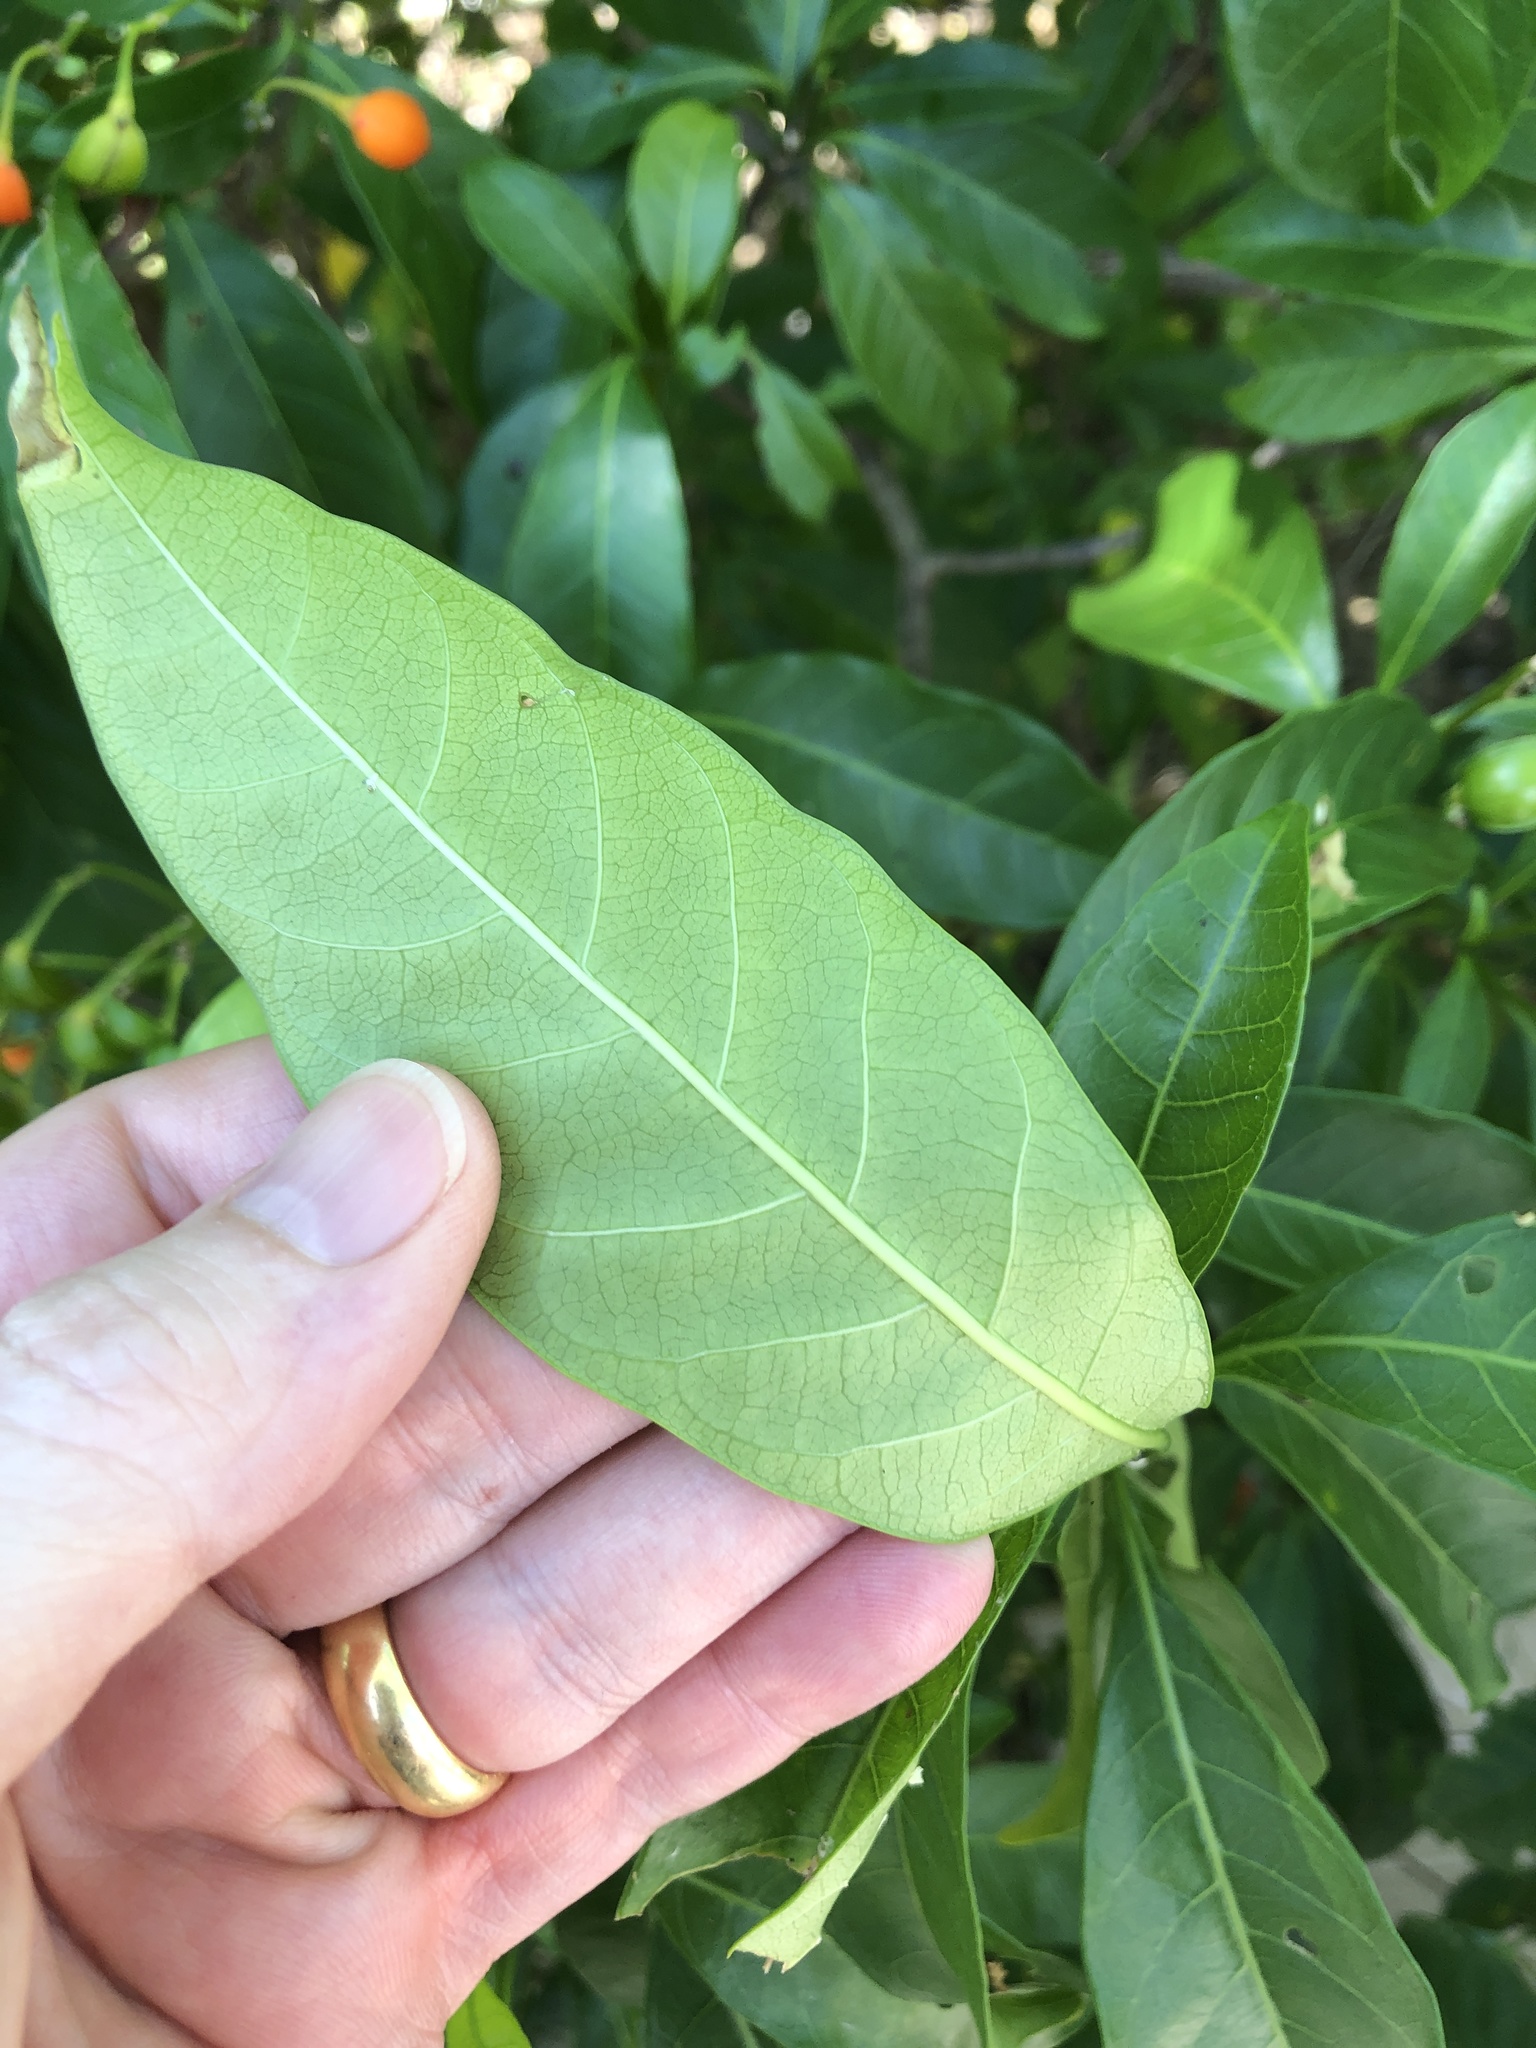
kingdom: Plantae
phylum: Tracheophyta
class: Magnoliopsida
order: Gentianales
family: Apocynaceae
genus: Tabernaemontana
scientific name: Tabernaemontana pandacaqui
